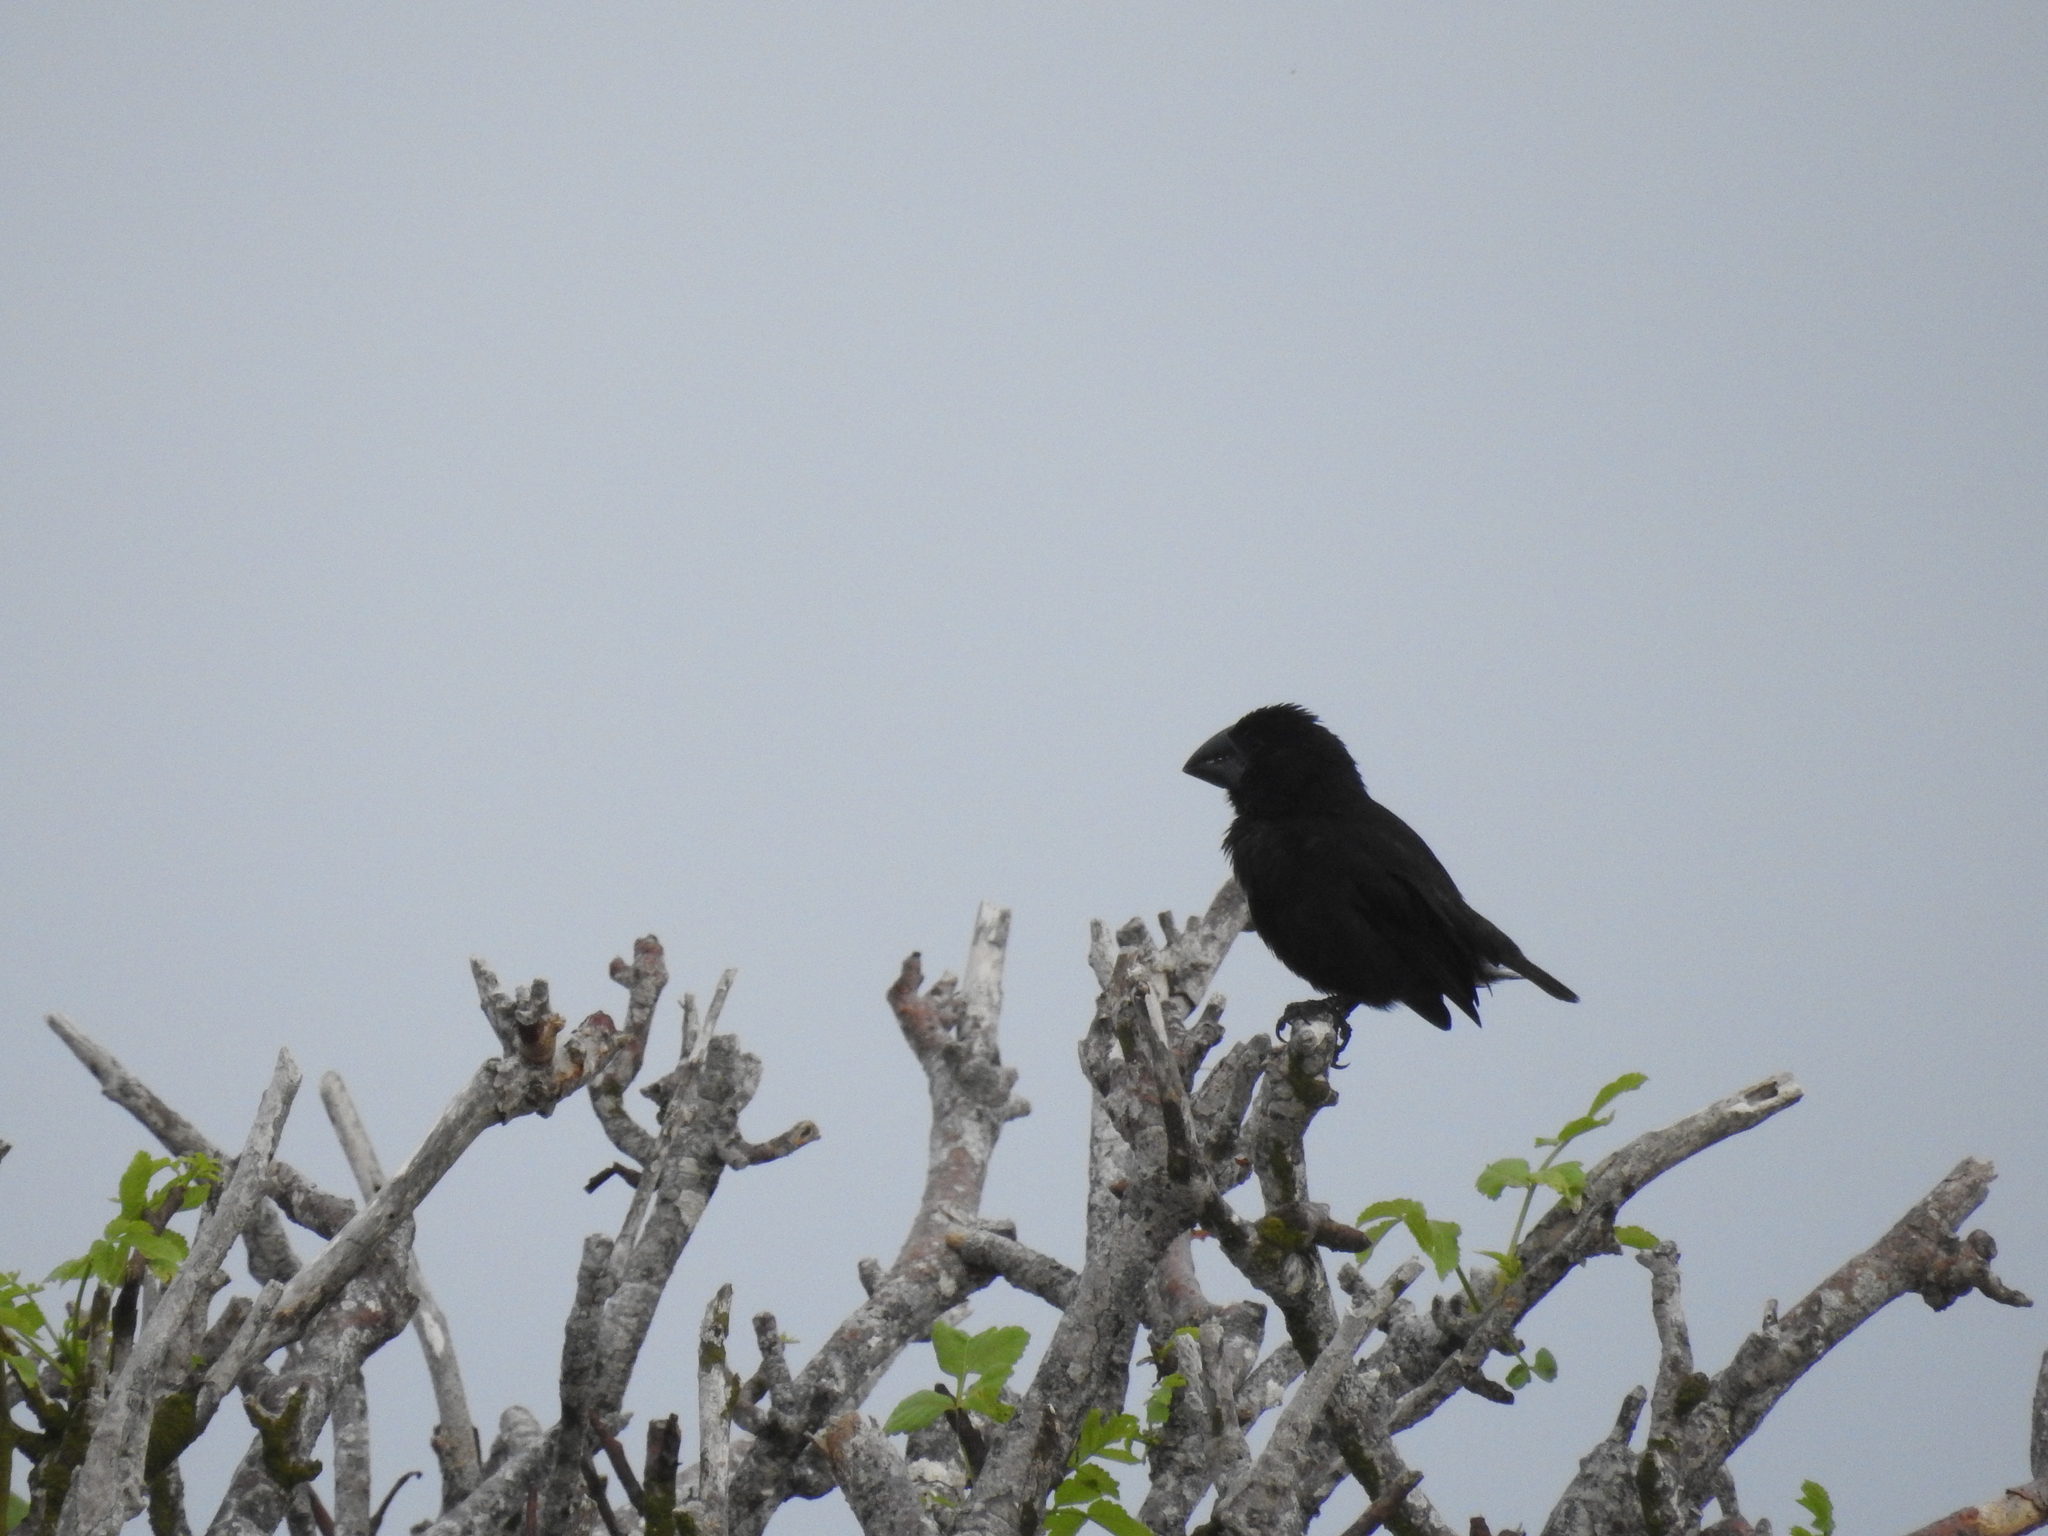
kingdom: Animalia
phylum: Chordata
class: Aves
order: Passeriformes
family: Thraupidae
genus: Geospiza
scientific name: Geospiza magnirostris
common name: Large ground-finch
